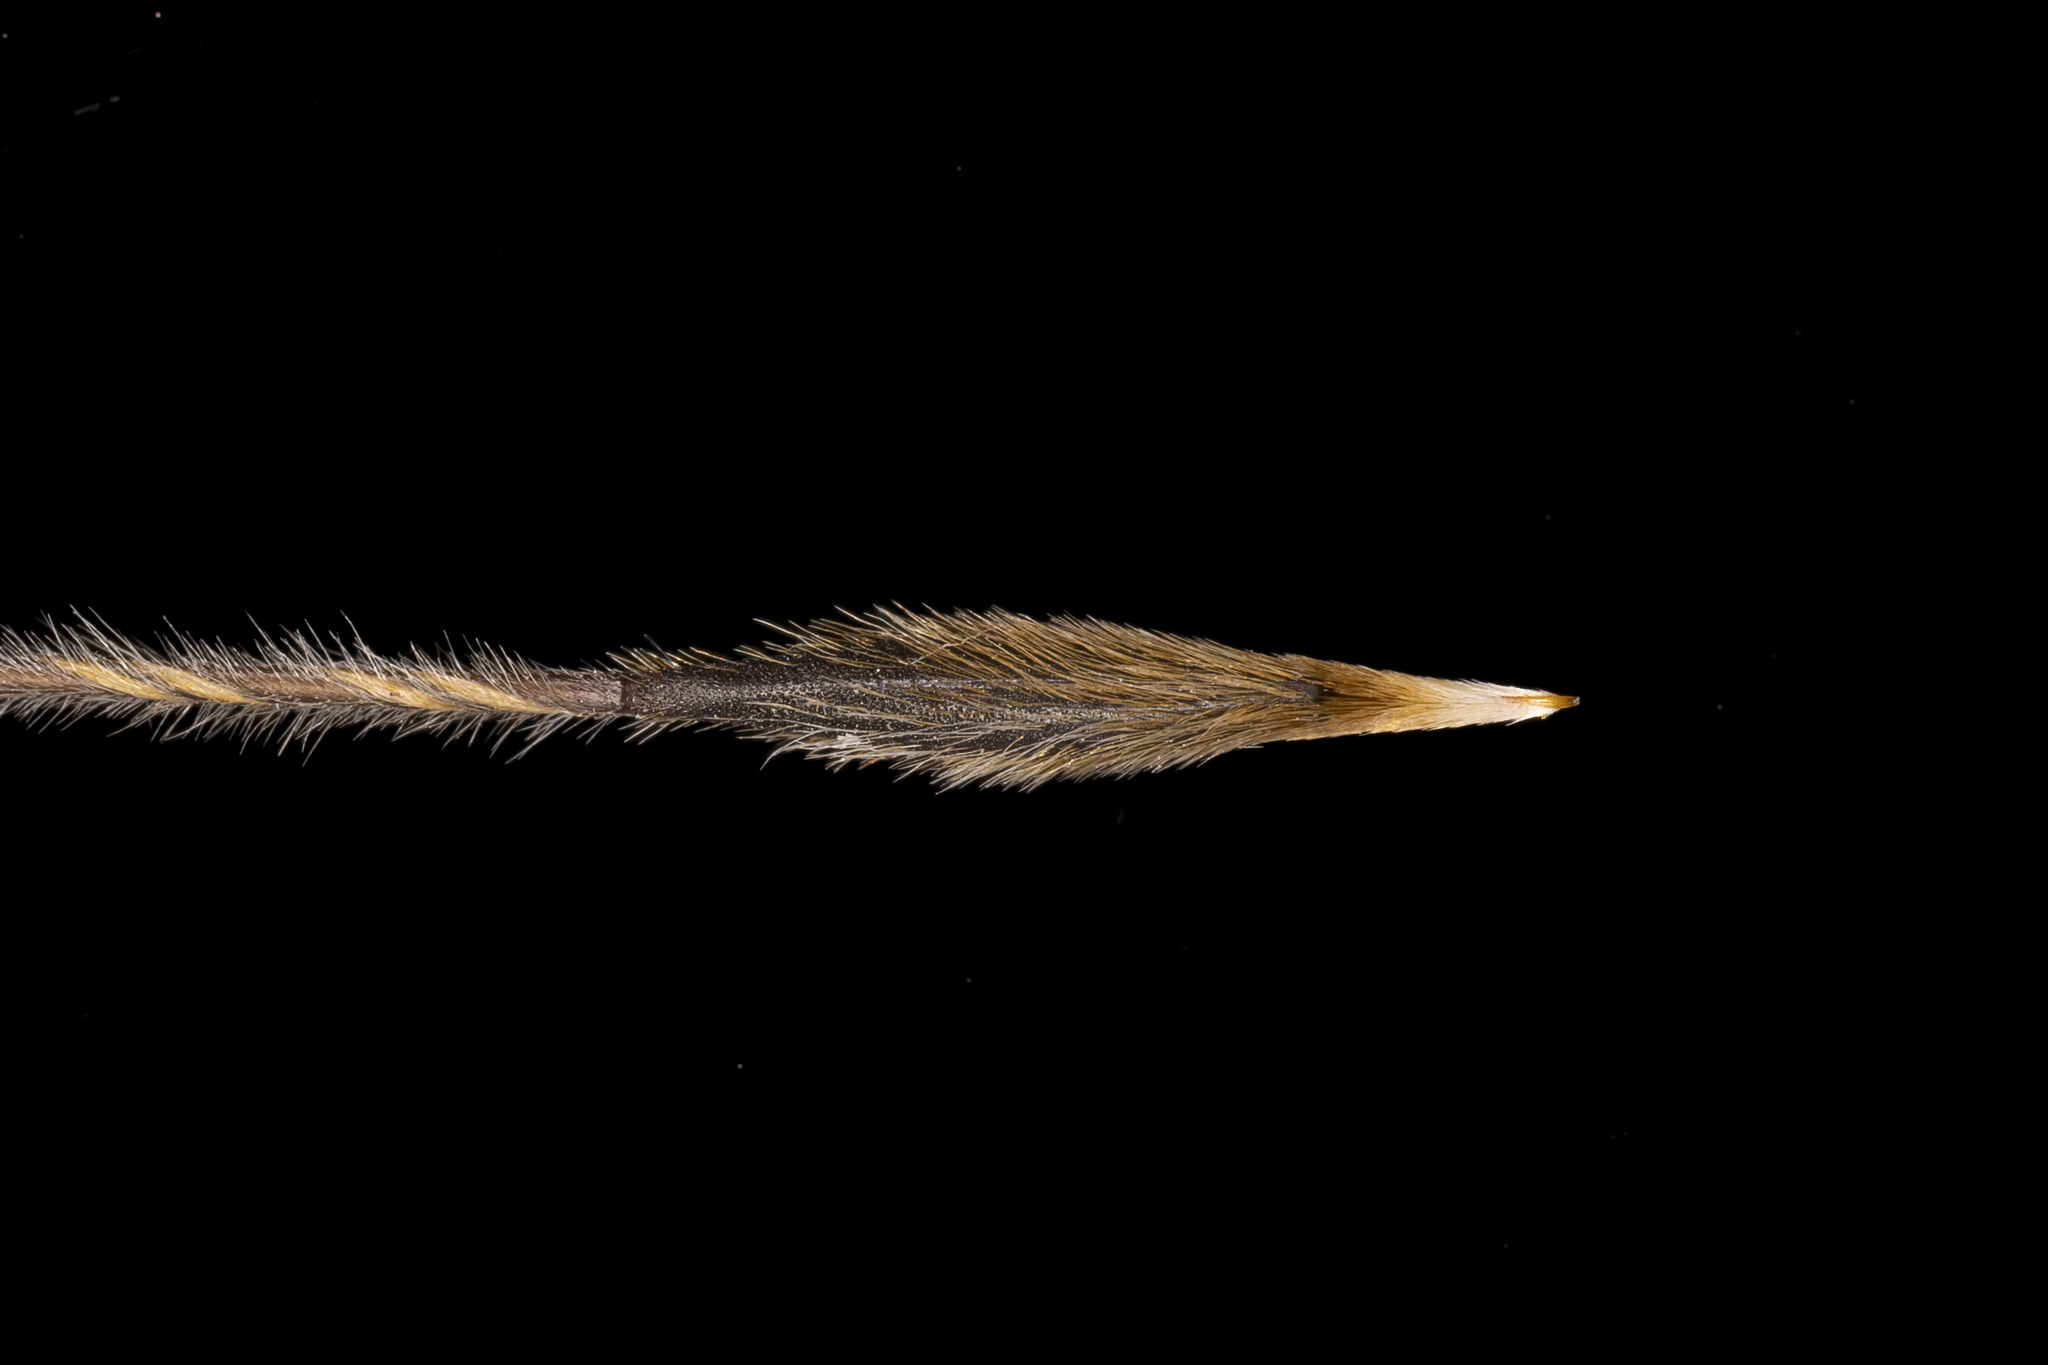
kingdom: Plantae
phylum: Tracheophyta
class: Liliopsida
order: Poales
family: Poaceae
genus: Austrostipa
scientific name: Austrostipa semibarbata
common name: Fibrous spear grass
